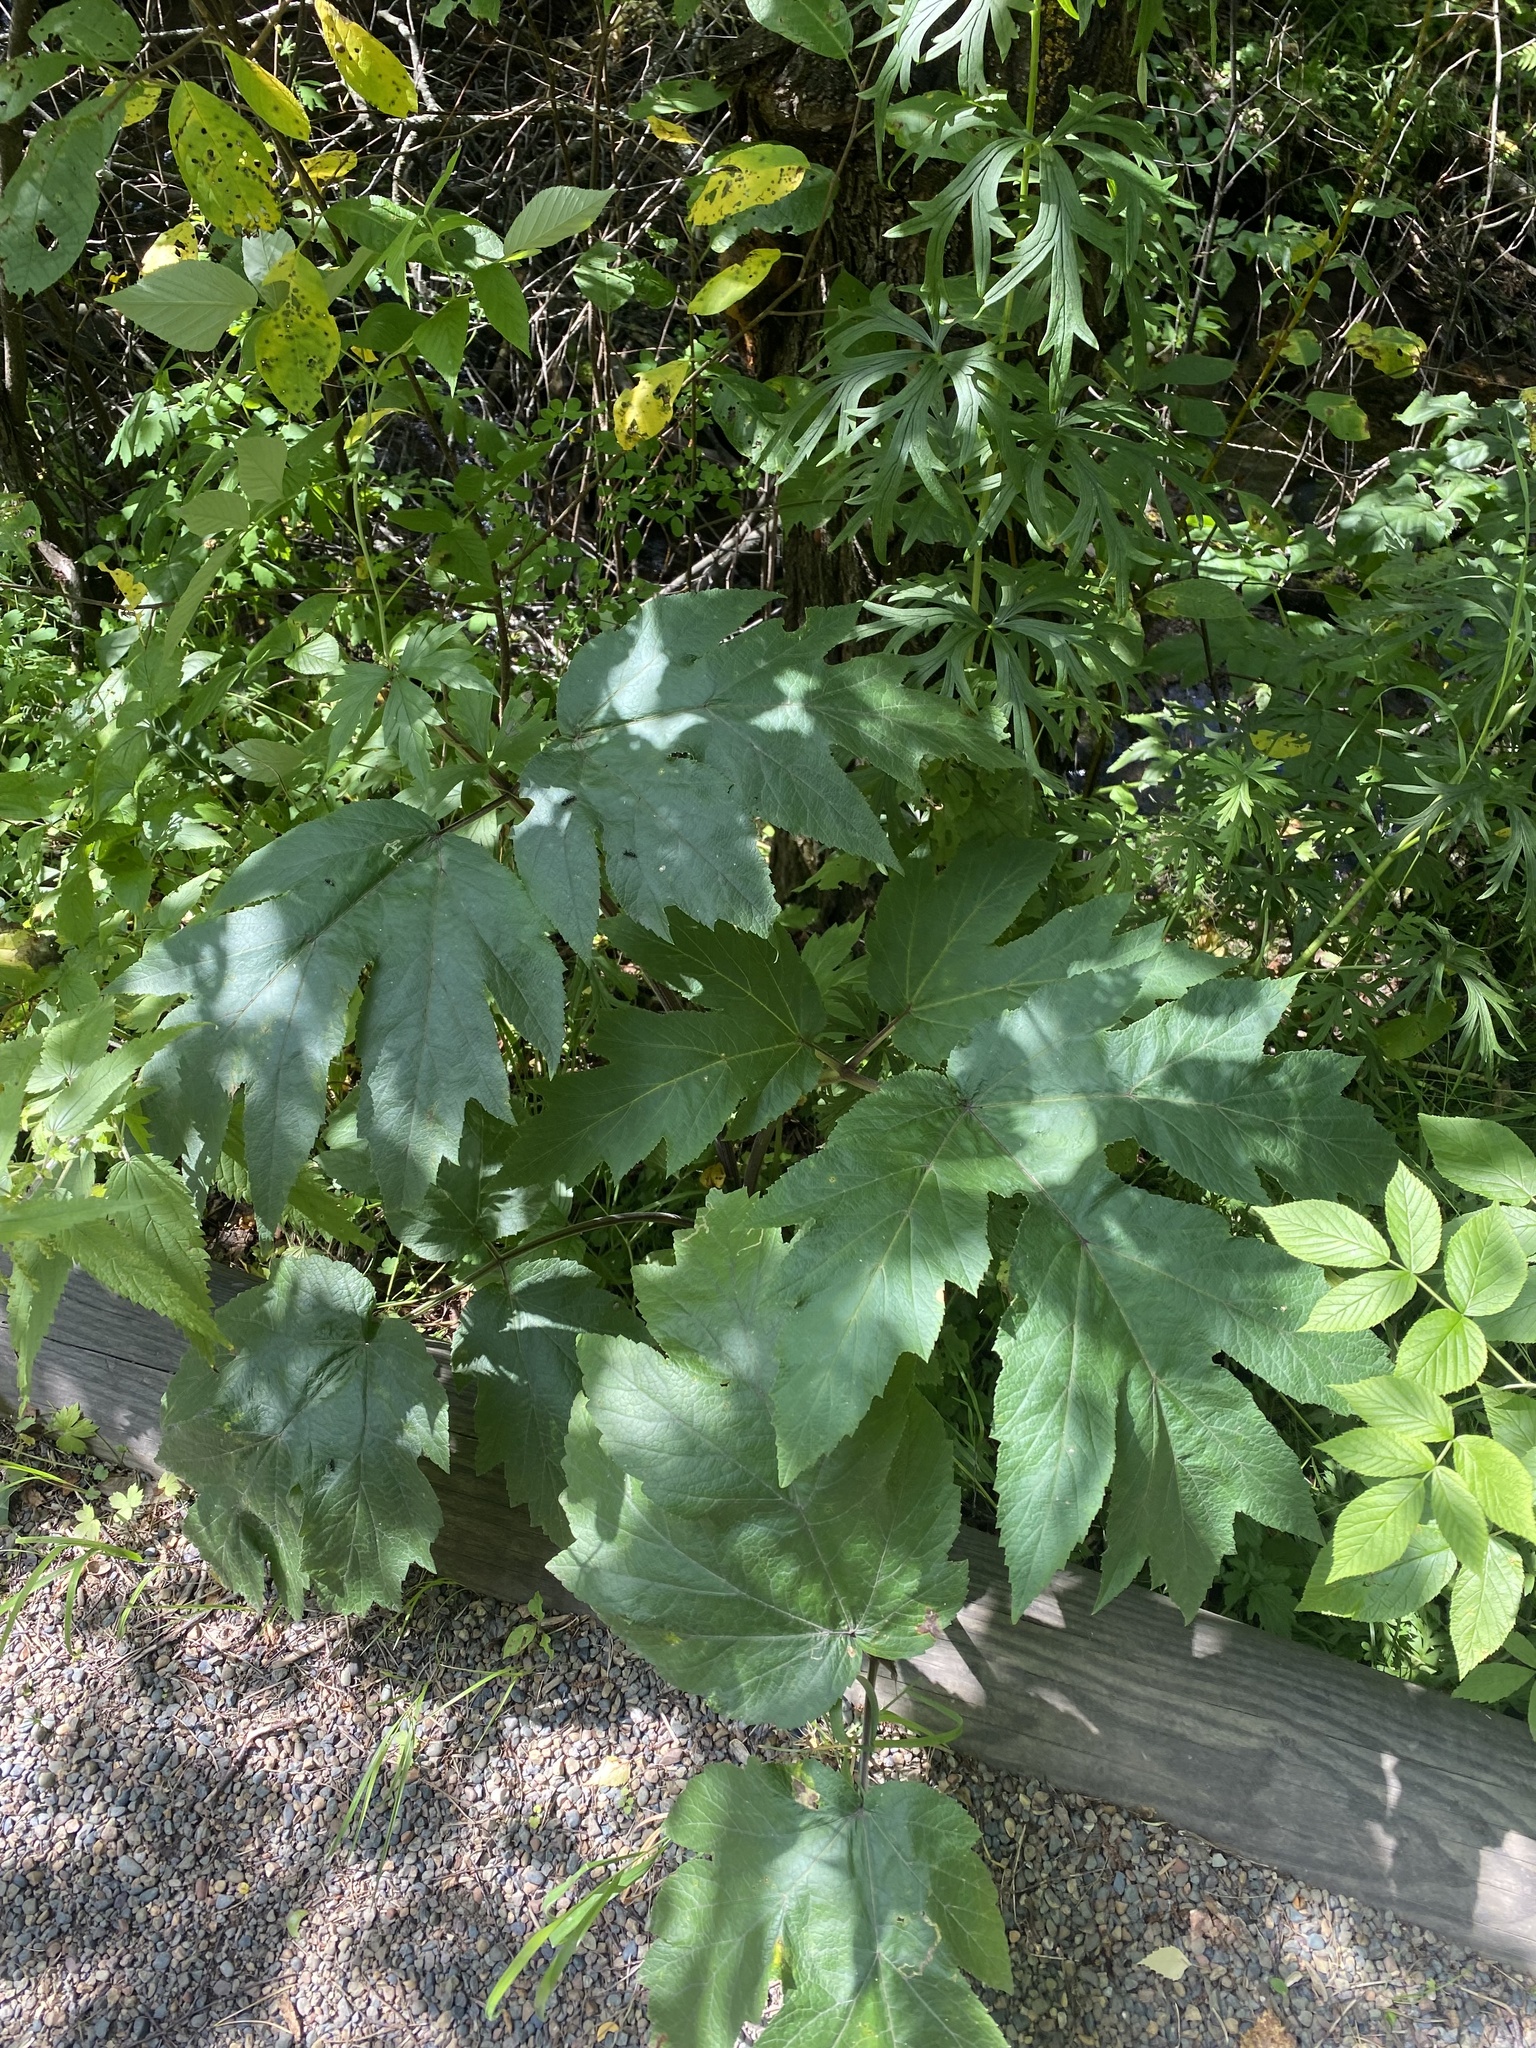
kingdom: Plantae
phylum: Tracheophyta
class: Magnoliopsida
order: Apiales
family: Apiaceae
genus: Heracleum
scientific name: Heracleum dissectum
